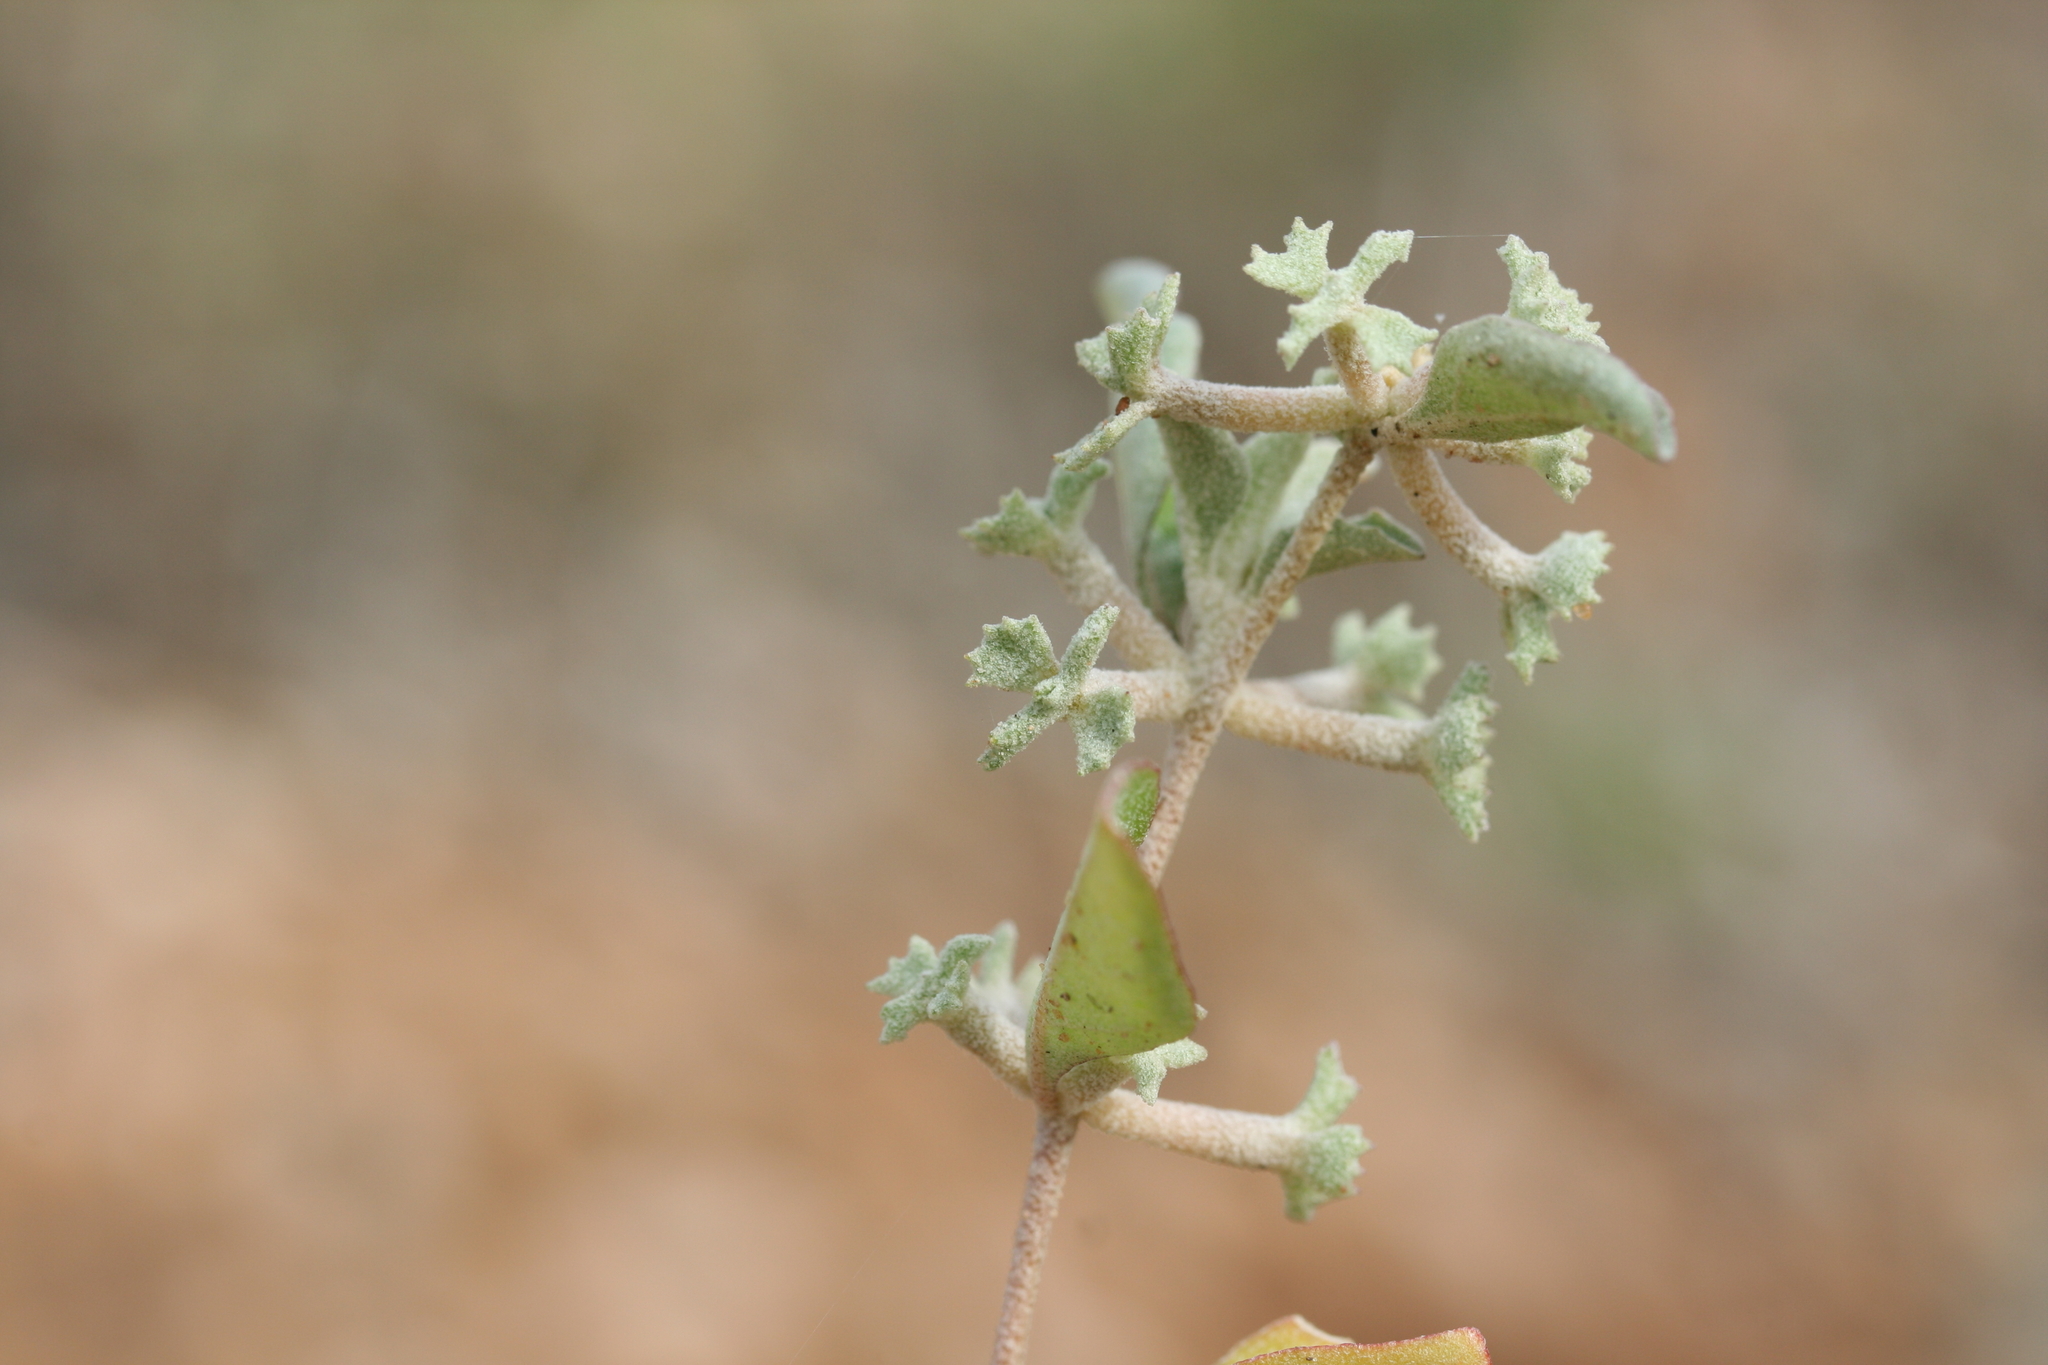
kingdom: Plantae
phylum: Tracheophyta
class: Magnoliopsida
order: Caryophyllales
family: Amaranthaceae
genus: Atriplex
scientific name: Atriplex limbata
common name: Spreading saltbush
